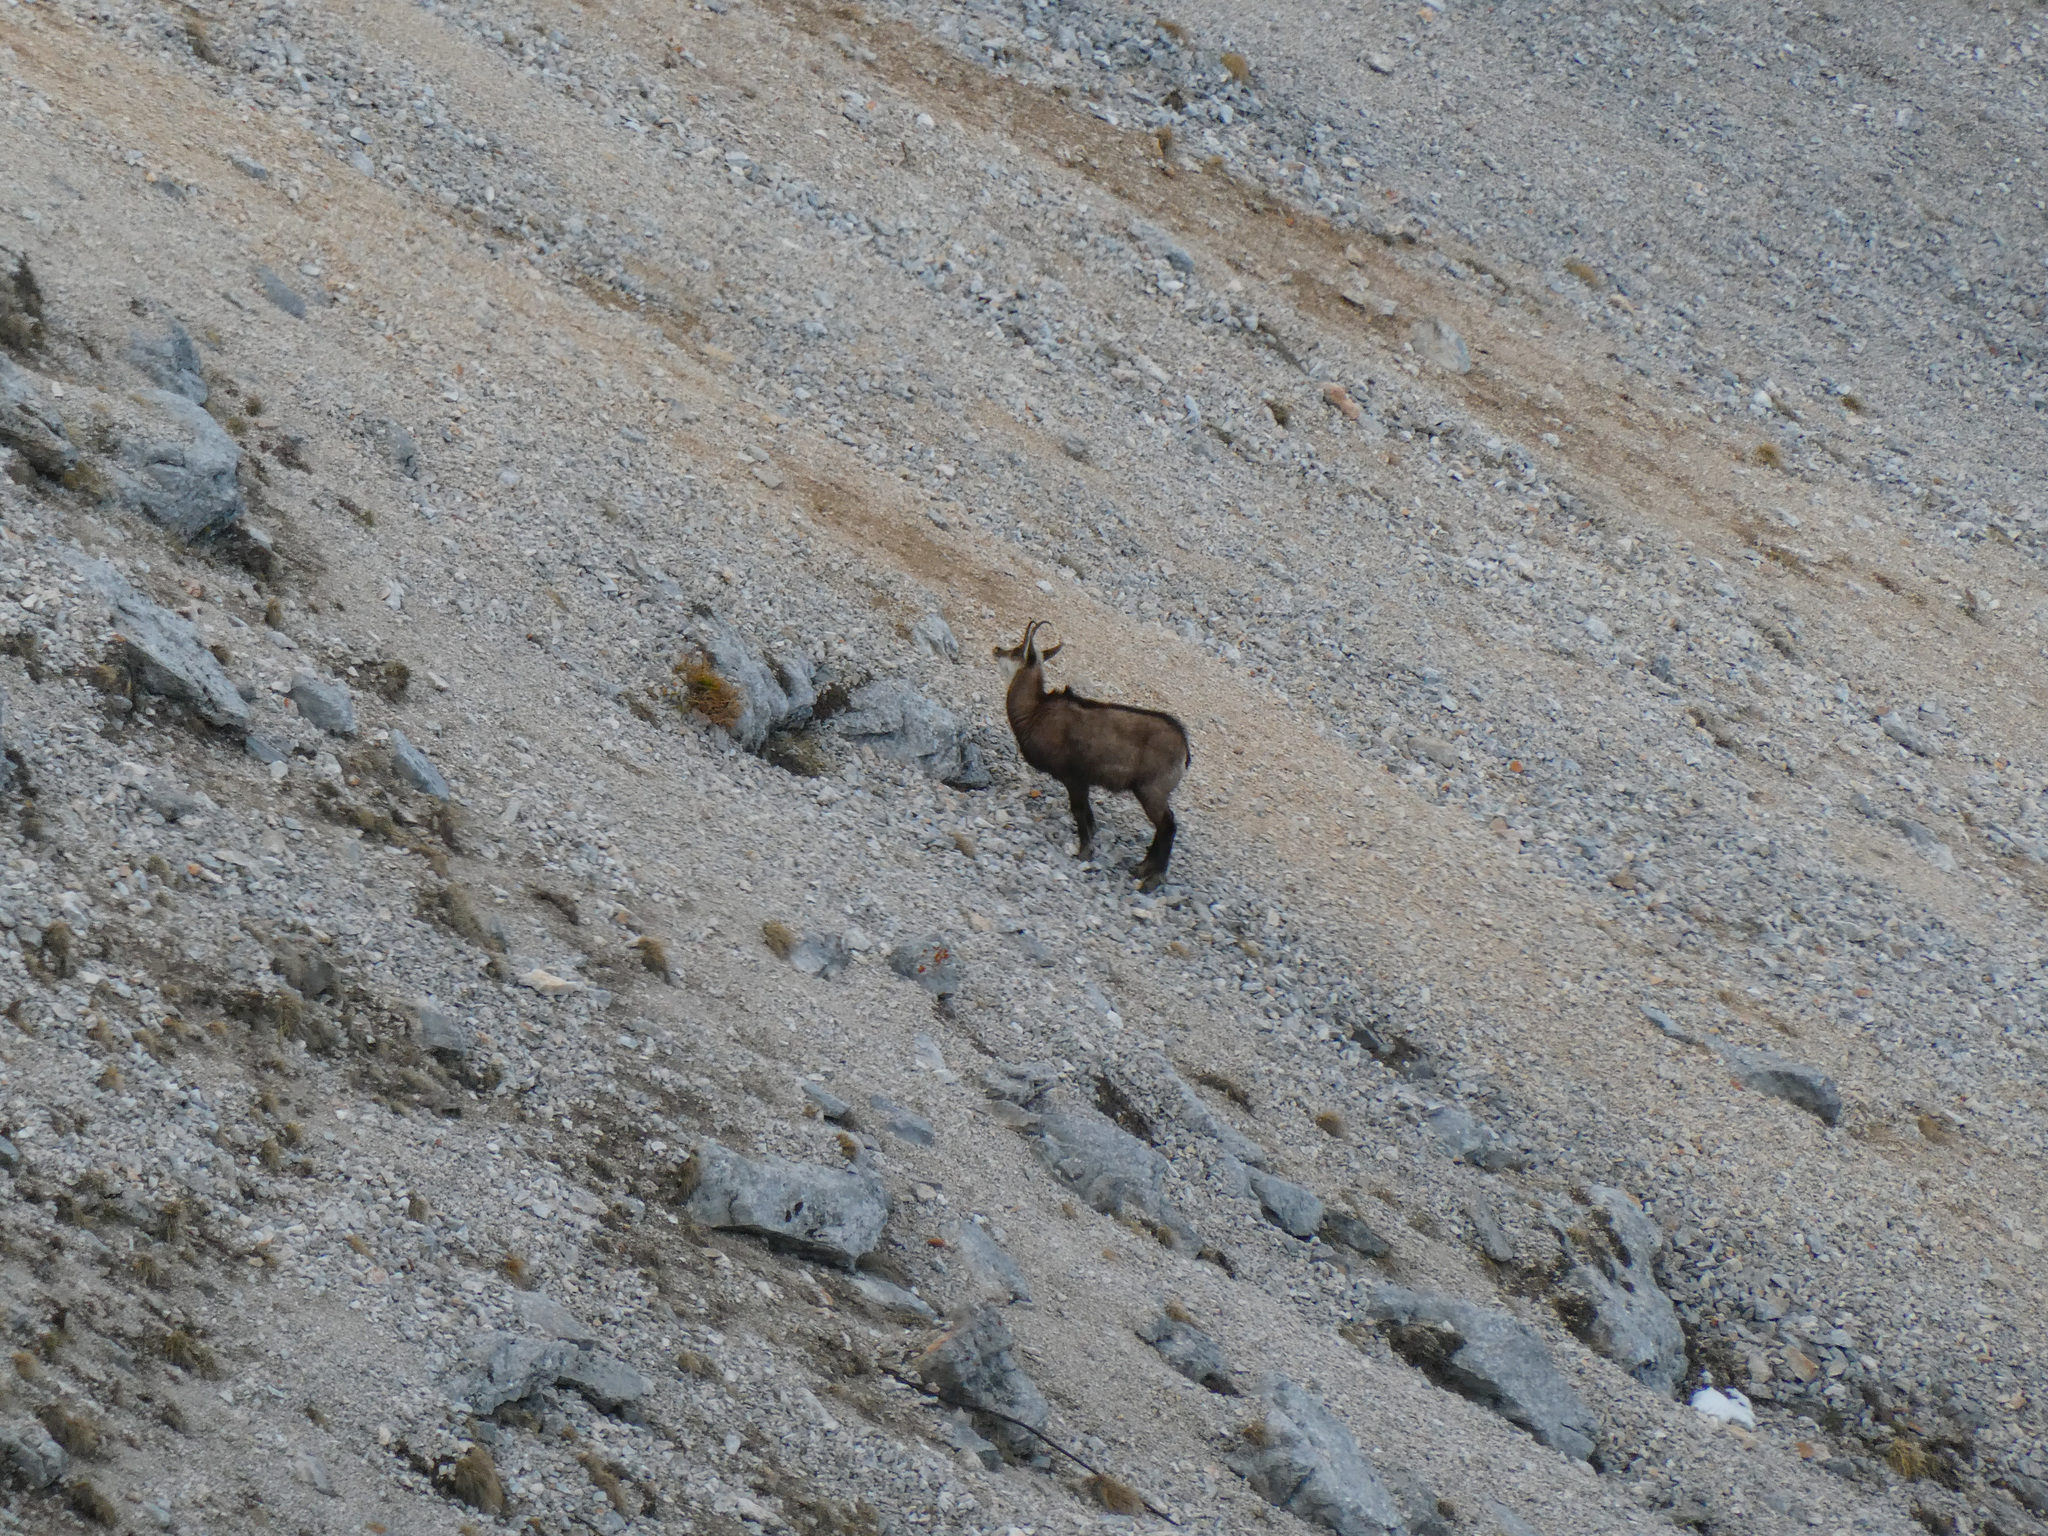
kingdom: Animalia
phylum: Chordata
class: Mammalia
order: Artiodactyla
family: Bovidae
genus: Rupicapra
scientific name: Rupicapra rupicapra
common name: Chamois
